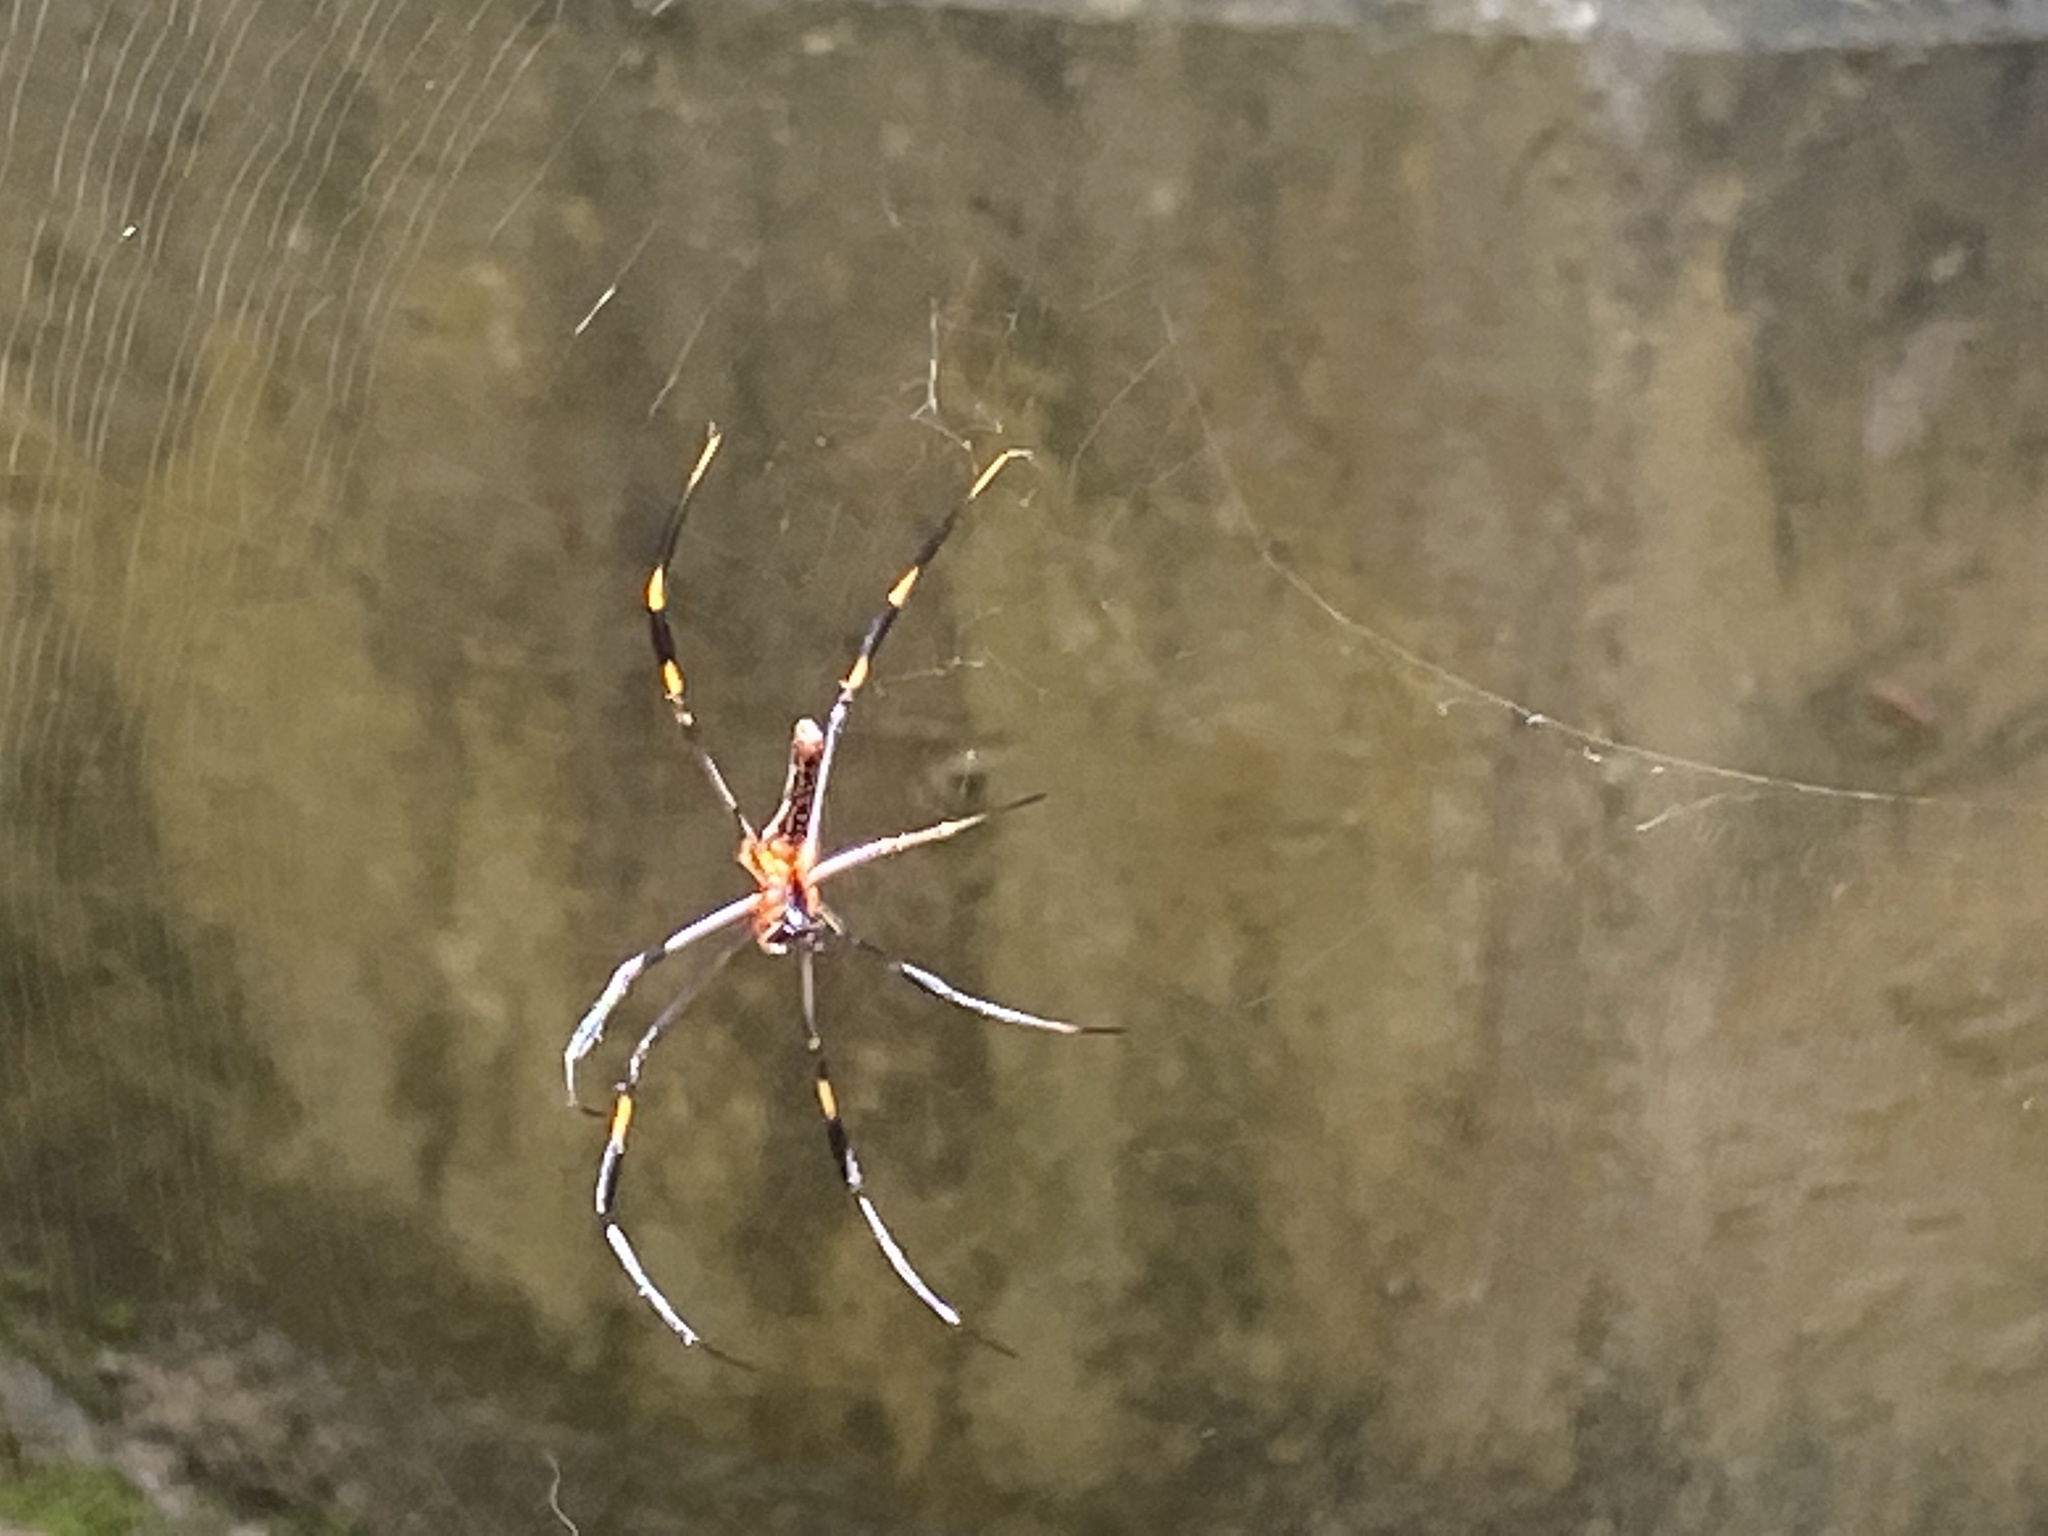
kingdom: Animalia
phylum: Arthropoda
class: Arachnida
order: Araneae
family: Araneidae
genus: Nephila
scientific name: Nephila pilipes
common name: Giant golden orb weaver
